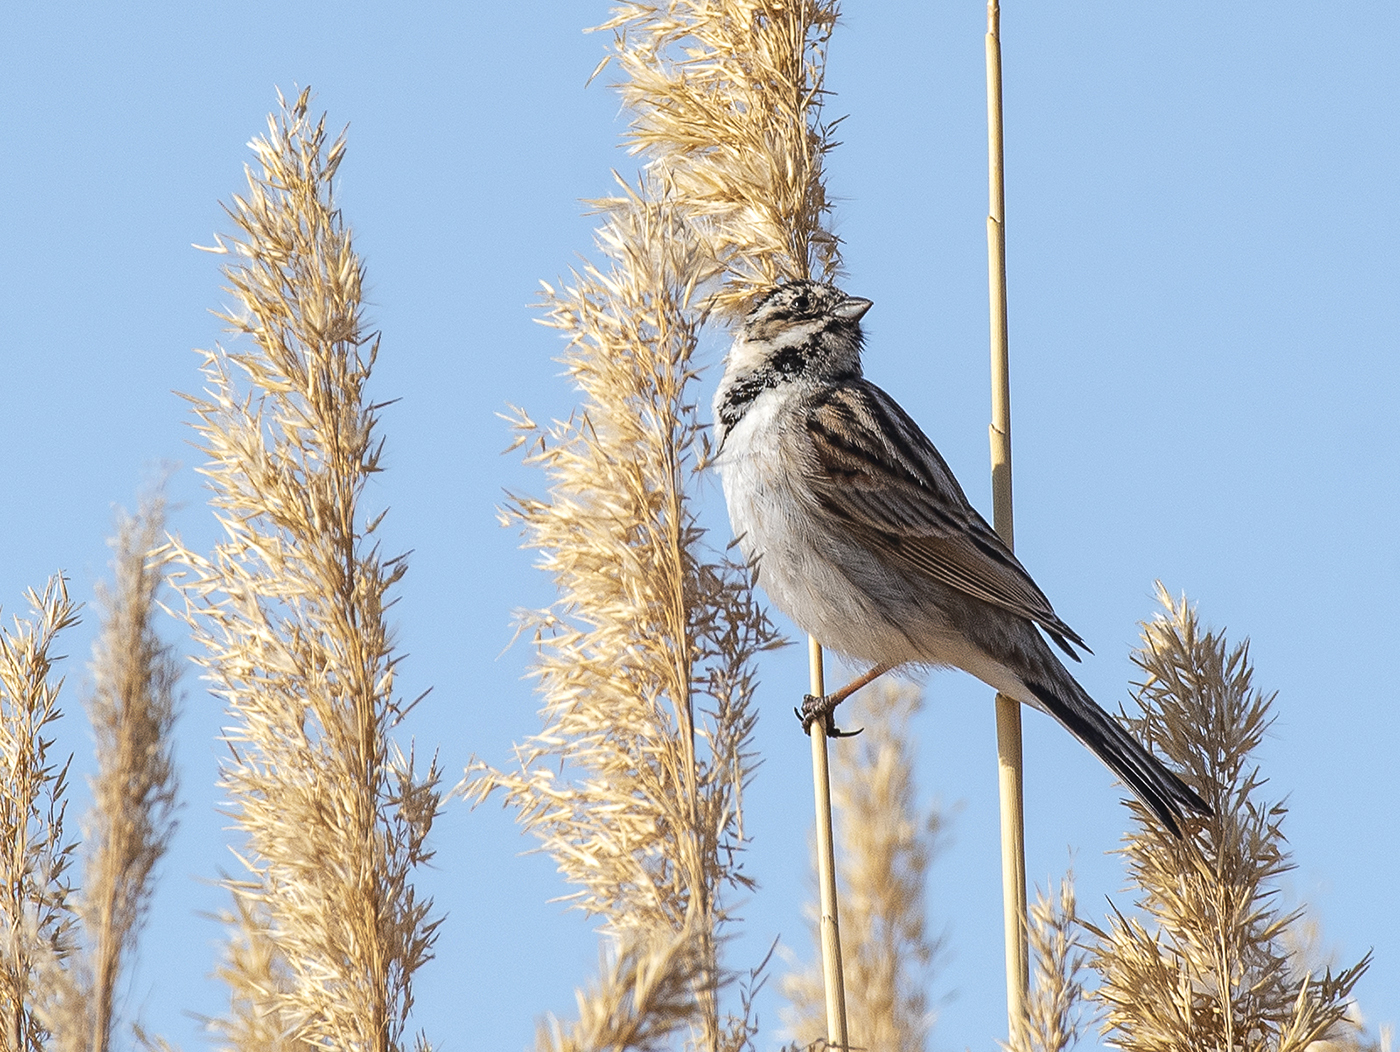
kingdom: Animalia
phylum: Chordata
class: Aves
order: Passeriformes
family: Emberizidae
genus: Emberiza
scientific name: Emberiza schoeniclus
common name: Reed bunting
